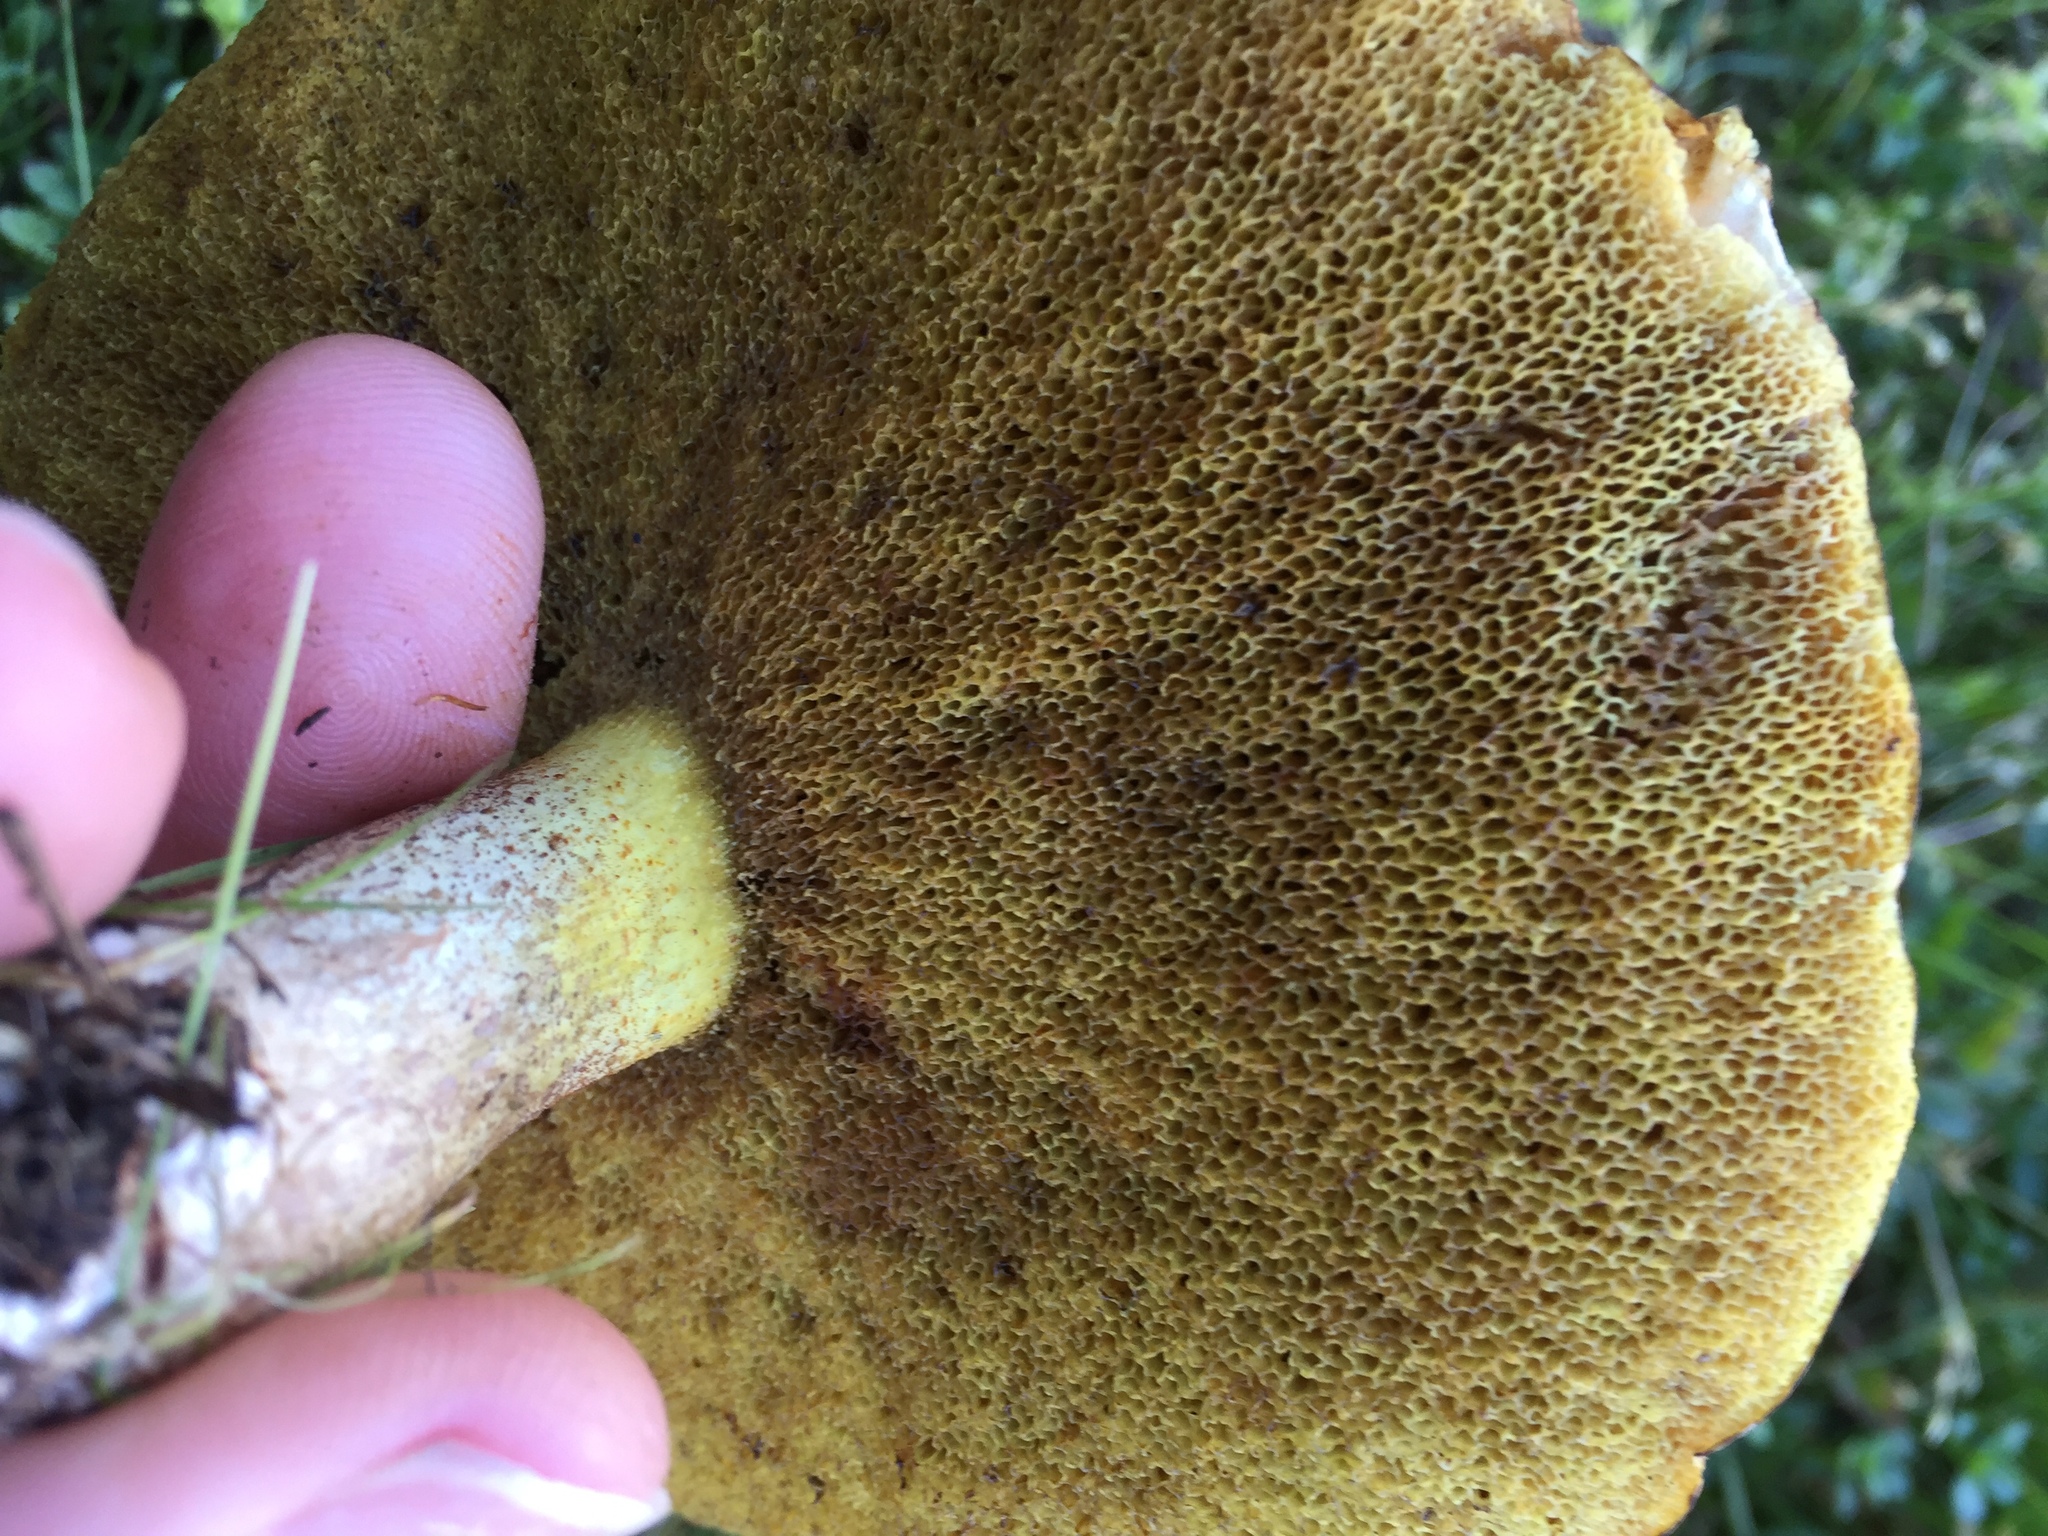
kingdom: Fungi
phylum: Basidiomycota
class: Agaricomycetes
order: Boletales
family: Suillaceae
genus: Suillus
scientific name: Suillus pungens
